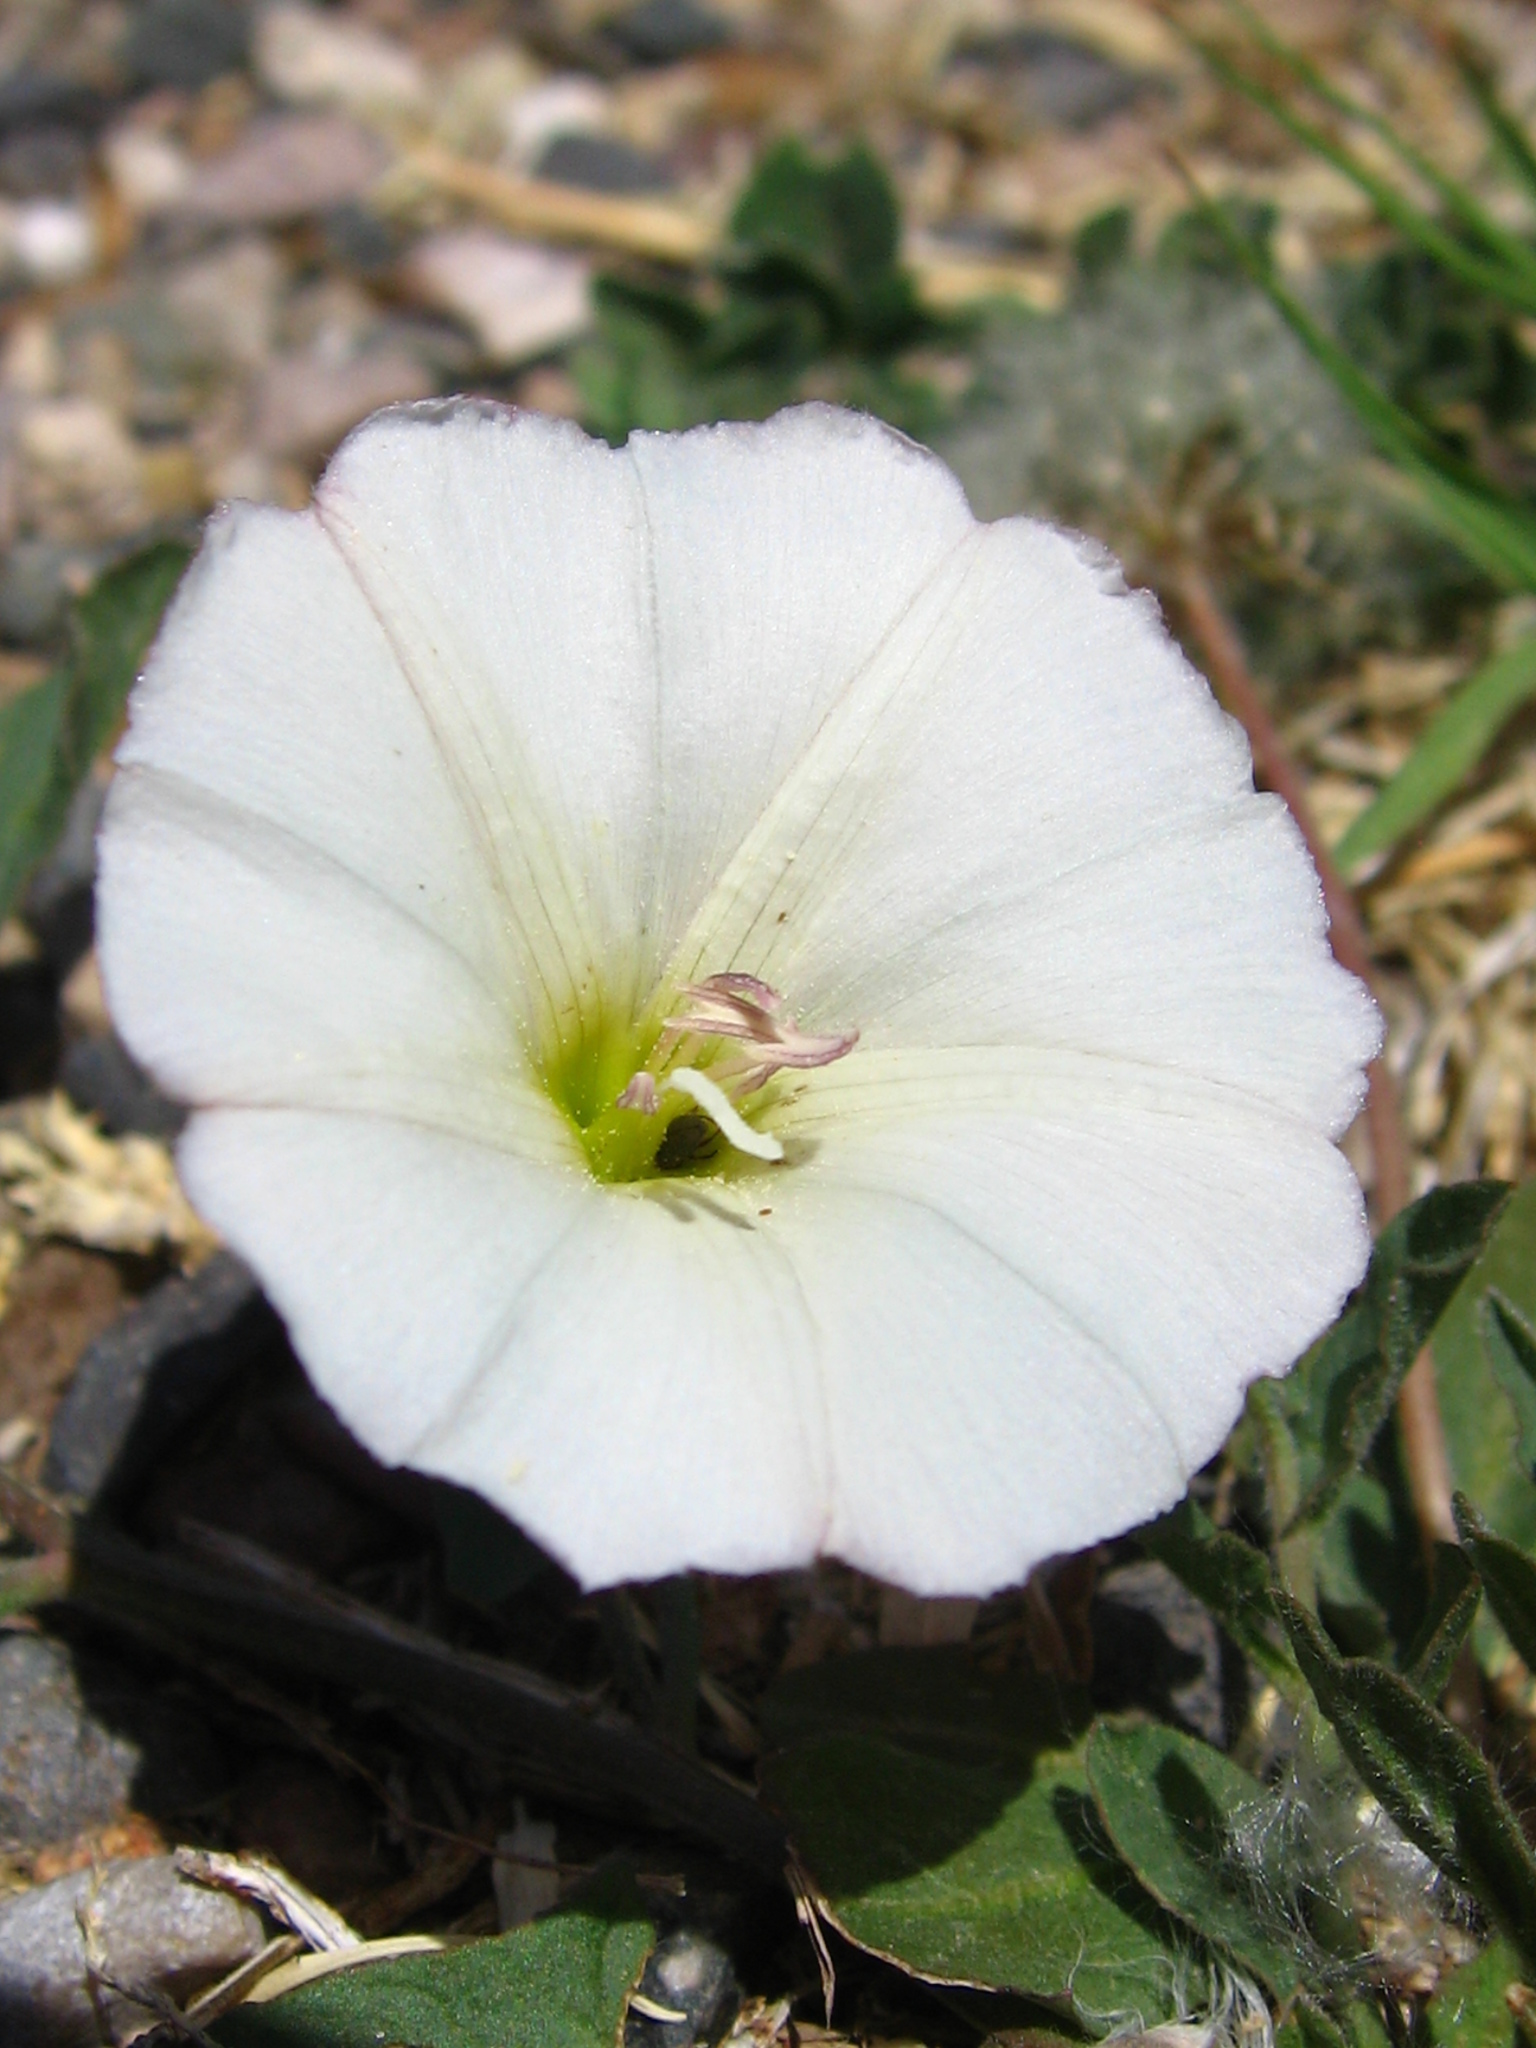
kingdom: Plantae
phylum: Tracheophyta
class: Magnoliopsida
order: Solanales
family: Convolvulaceae
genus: Convolvulus
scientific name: Convolvulus arvensis
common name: Field bindweed
